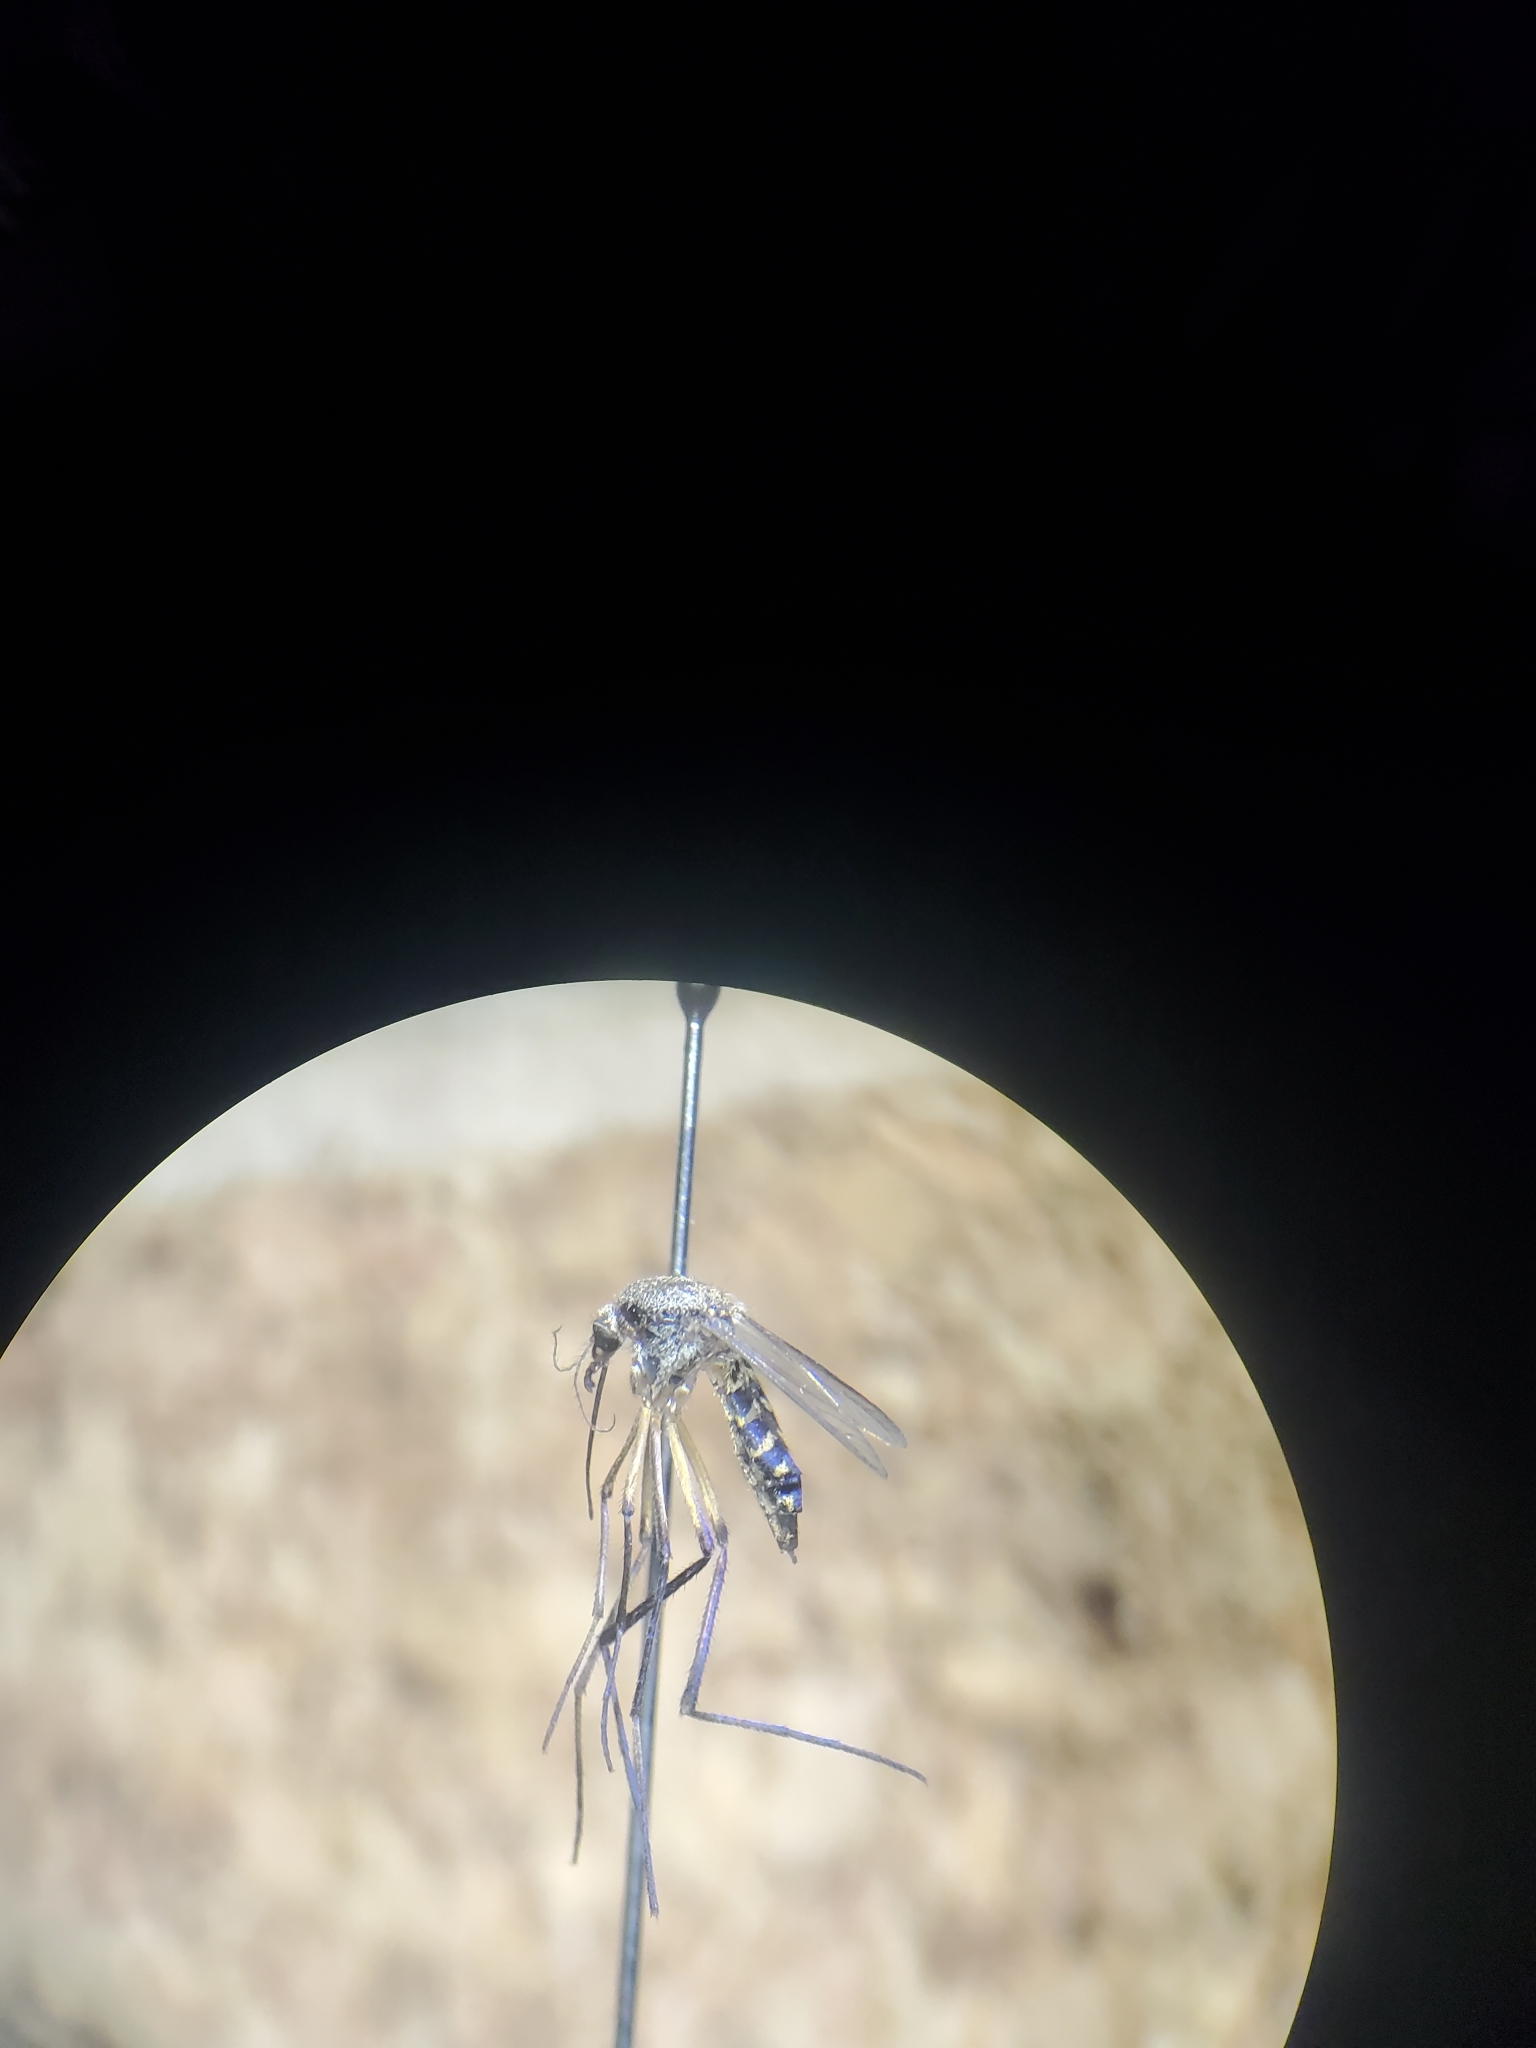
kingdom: Animalia
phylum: Arthropoda
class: Insecta
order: Diptera
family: Culicidae
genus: Psorophora
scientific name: Psorophora cyanescens
